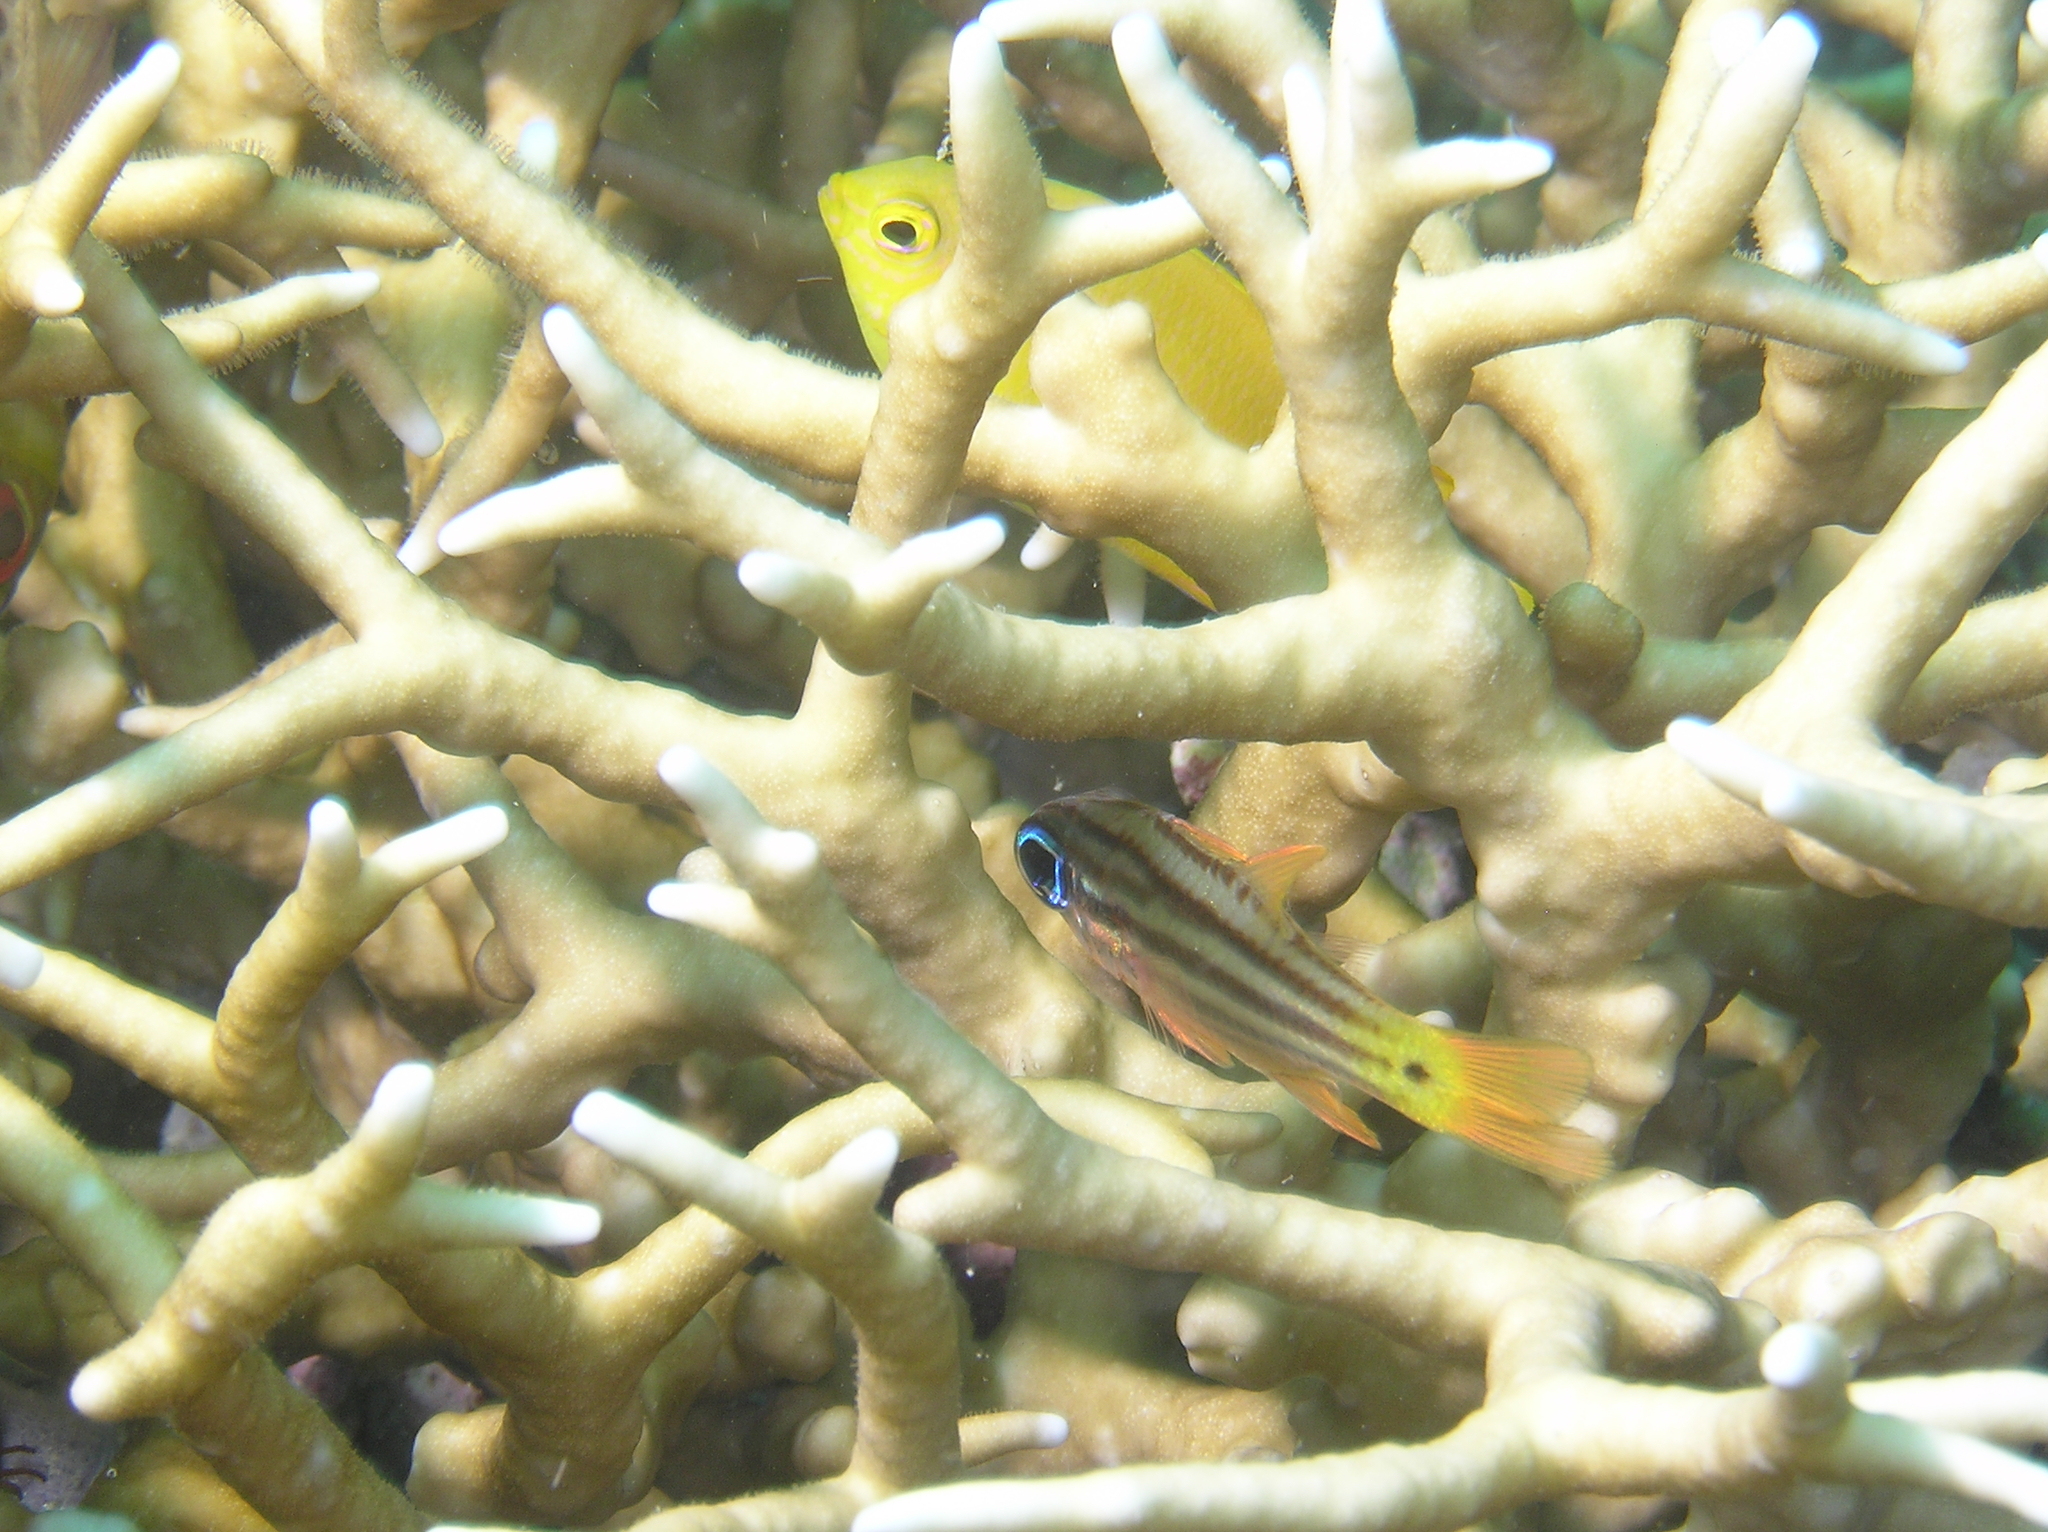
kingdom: Animalia
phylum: Chordata
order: Perciformes
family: Apogonidae
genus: Ostorhinchus
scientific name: Ostorhinchus compressus
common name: Ochre-striped cardinalfish
